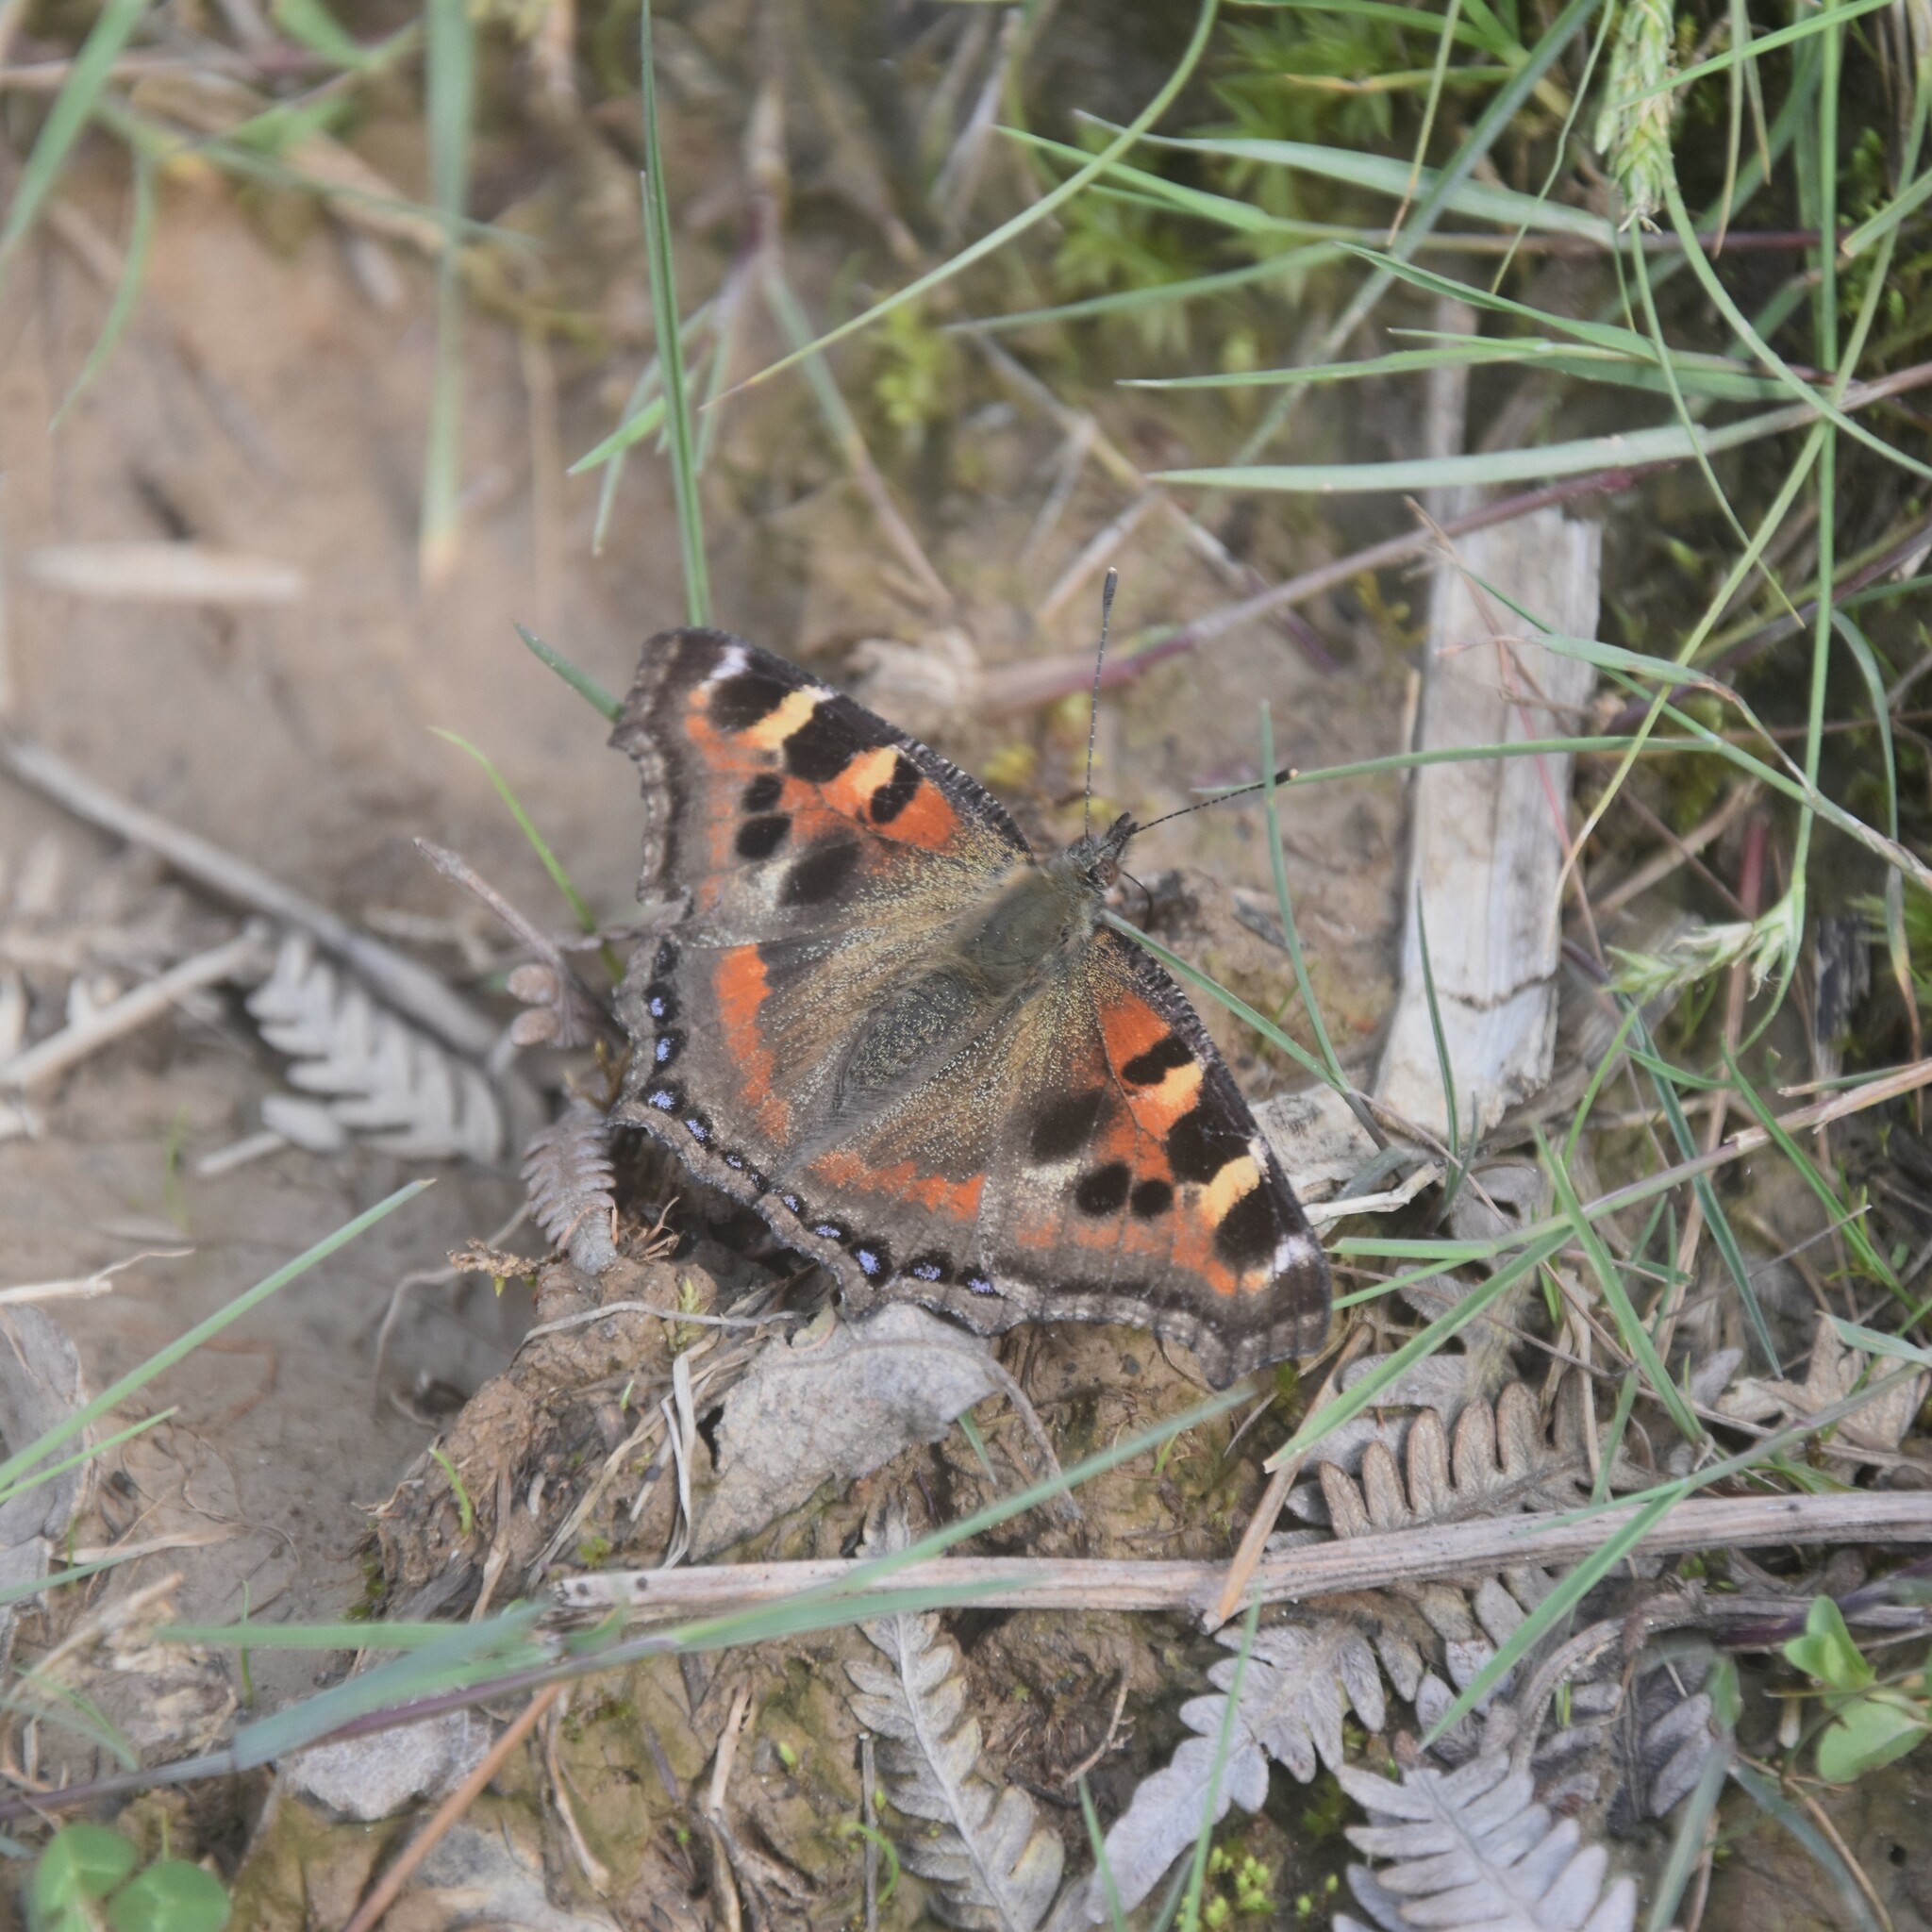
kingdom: Animalia
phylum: Arthropoda
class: Insecta
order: Lepidoptera
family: Nymphalidae
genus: Aglais
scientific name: Aglais caschmirensis
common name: Indian tortoiseshell
